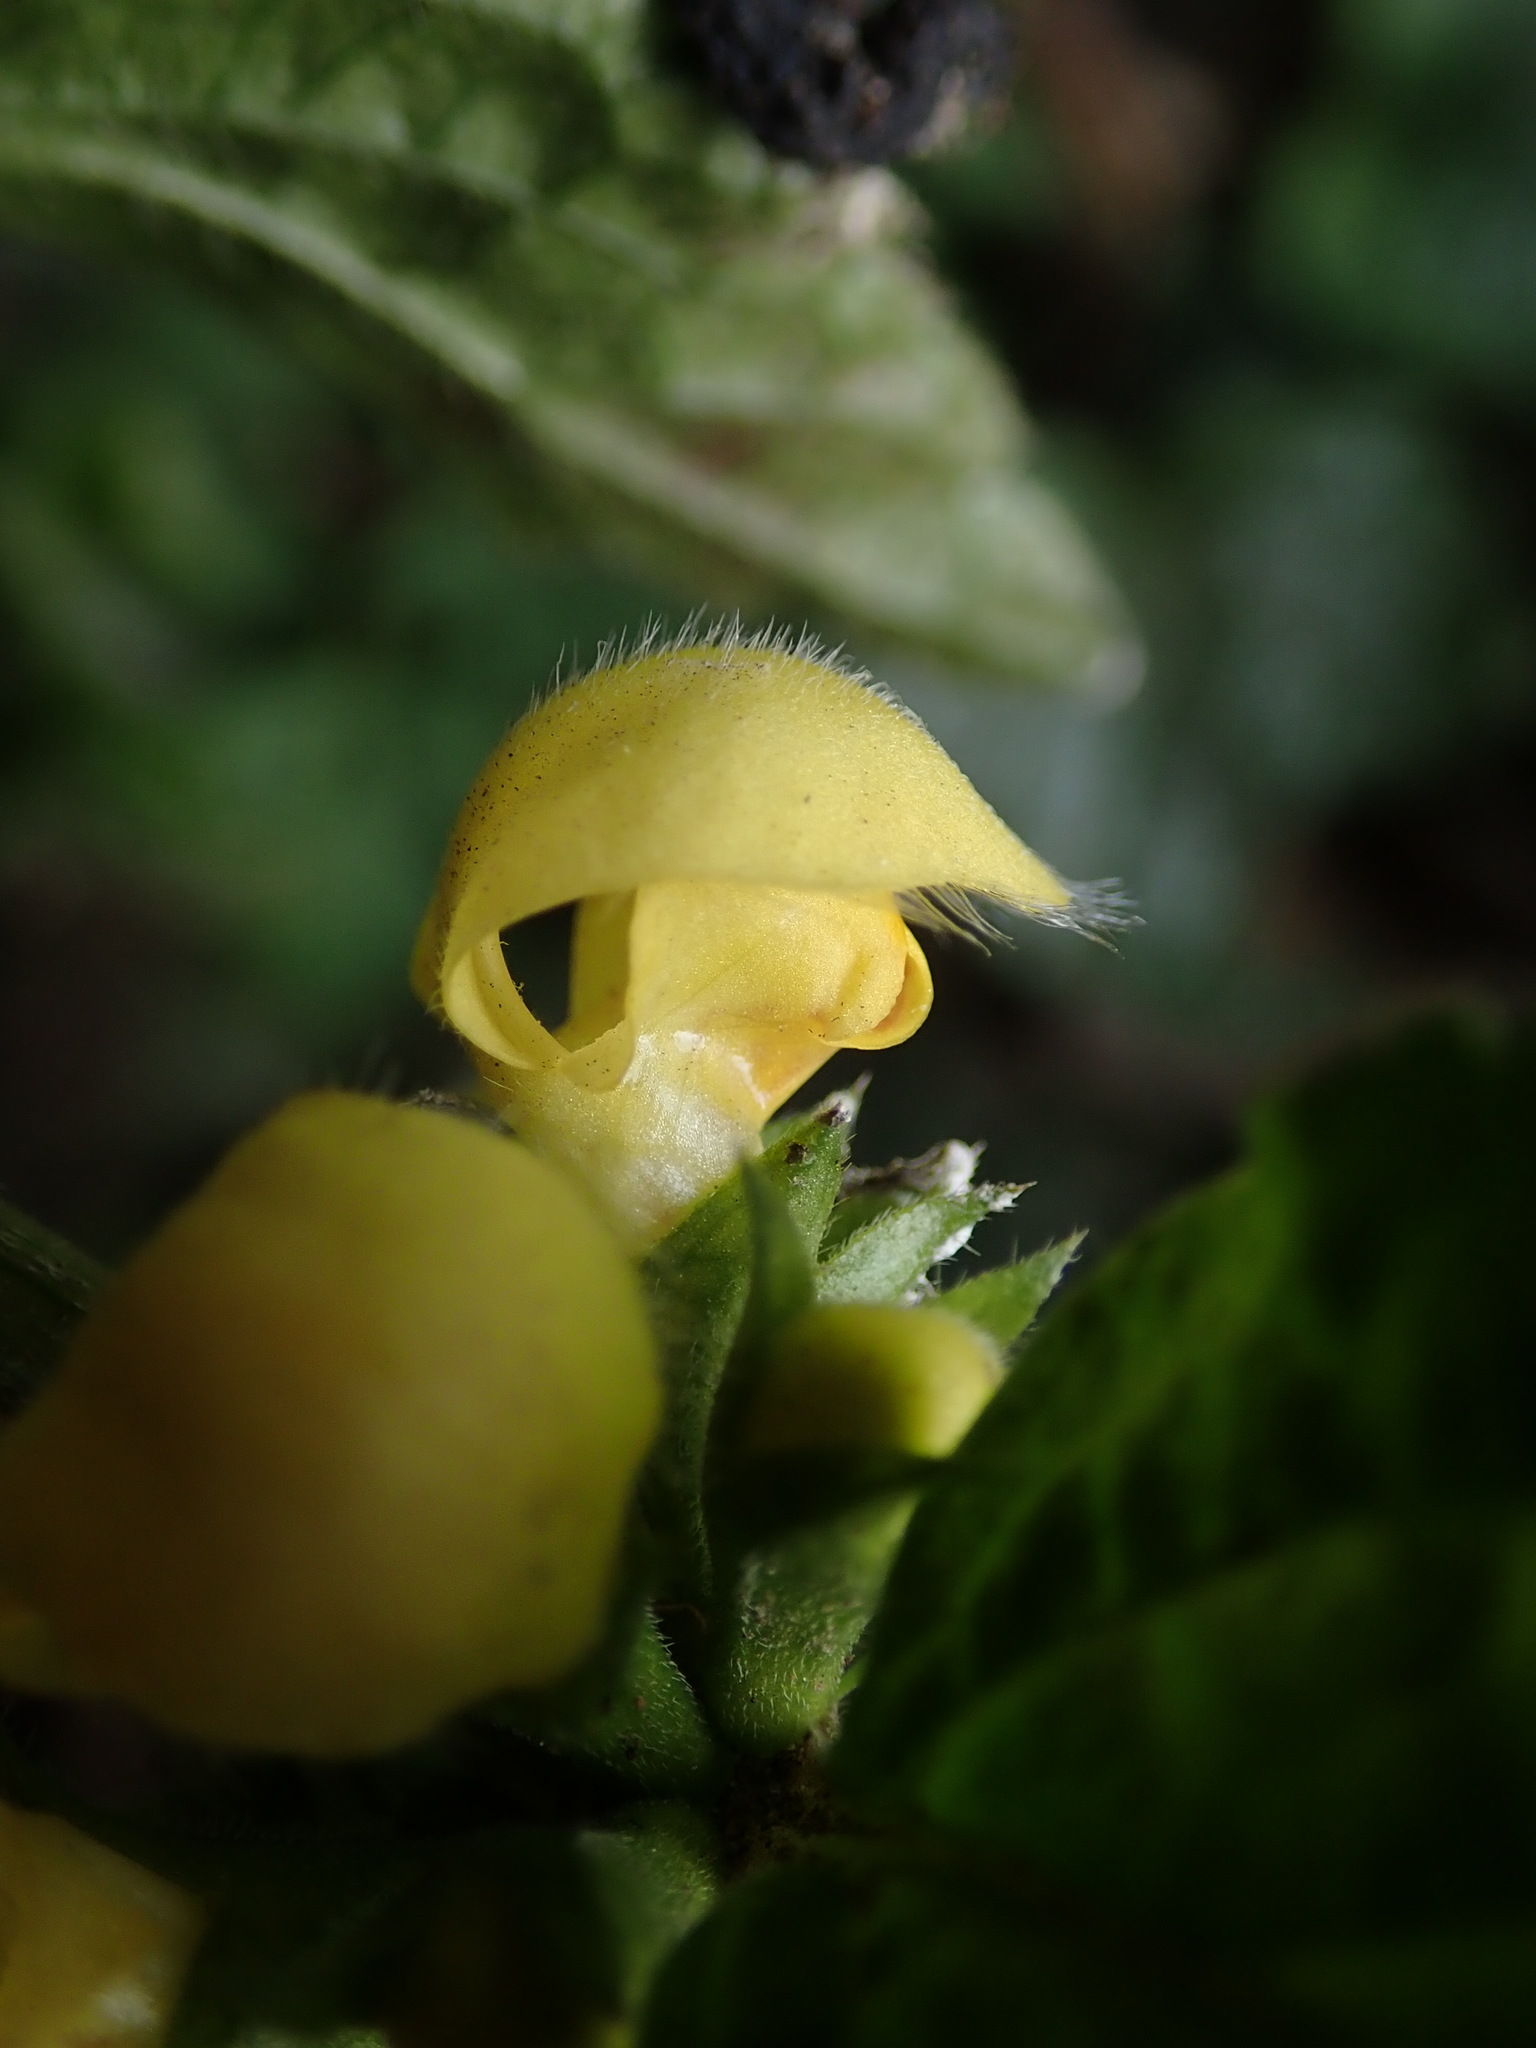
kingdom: Plantae
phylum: Tracheophyta
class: Magnoliopsida
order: Lamiales
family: Lamiaceae
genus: Lamium
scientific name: Lamium galeobdolon
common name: Yellow archangel
